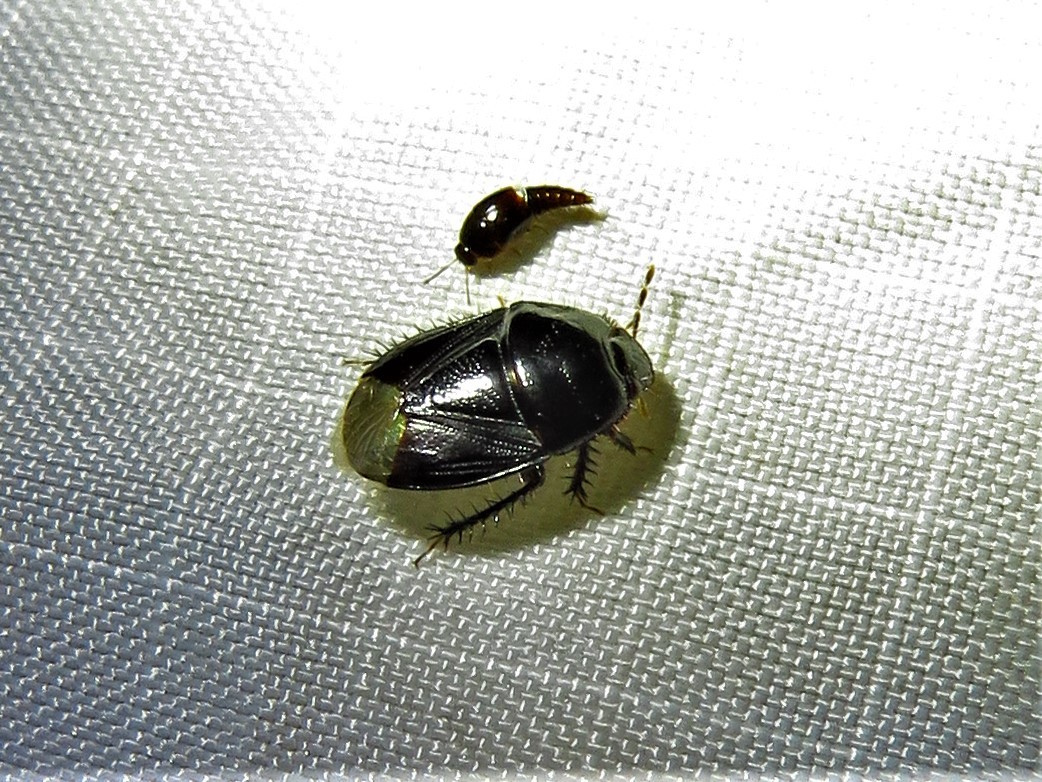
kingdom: Animalia
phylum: Arthropoda
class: Insecta
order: Hemiptera
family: Cydnidae
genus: Pangaeus
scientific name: Pangaeus bilineatus
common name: Burrower bug
